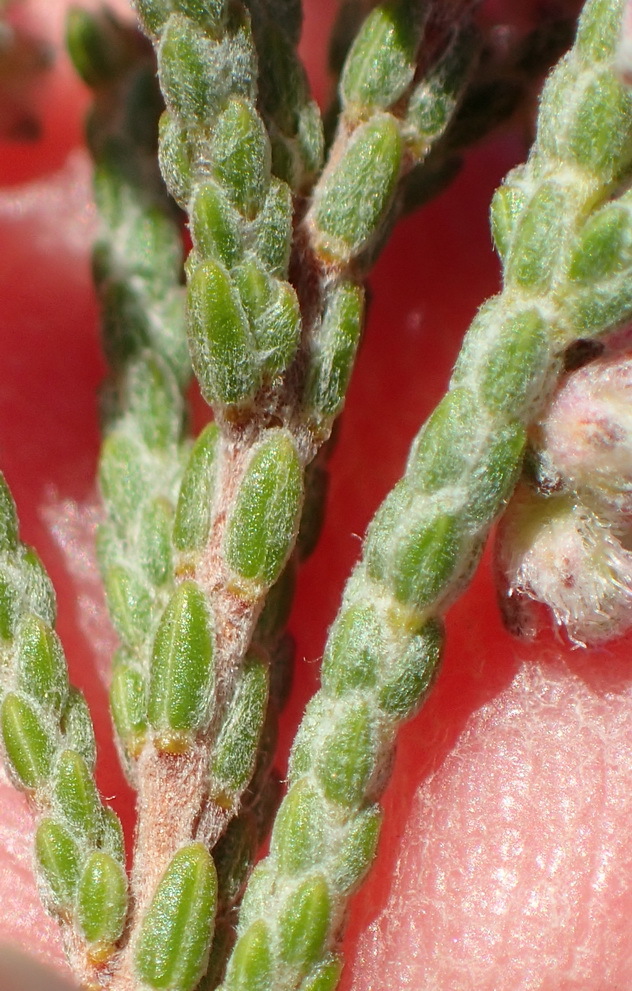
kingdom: Plantae
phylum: Tracheophyta
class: Magnoliopsida
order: Ericales
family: Ericaceae
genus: Erica
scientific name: Erica plumosa
